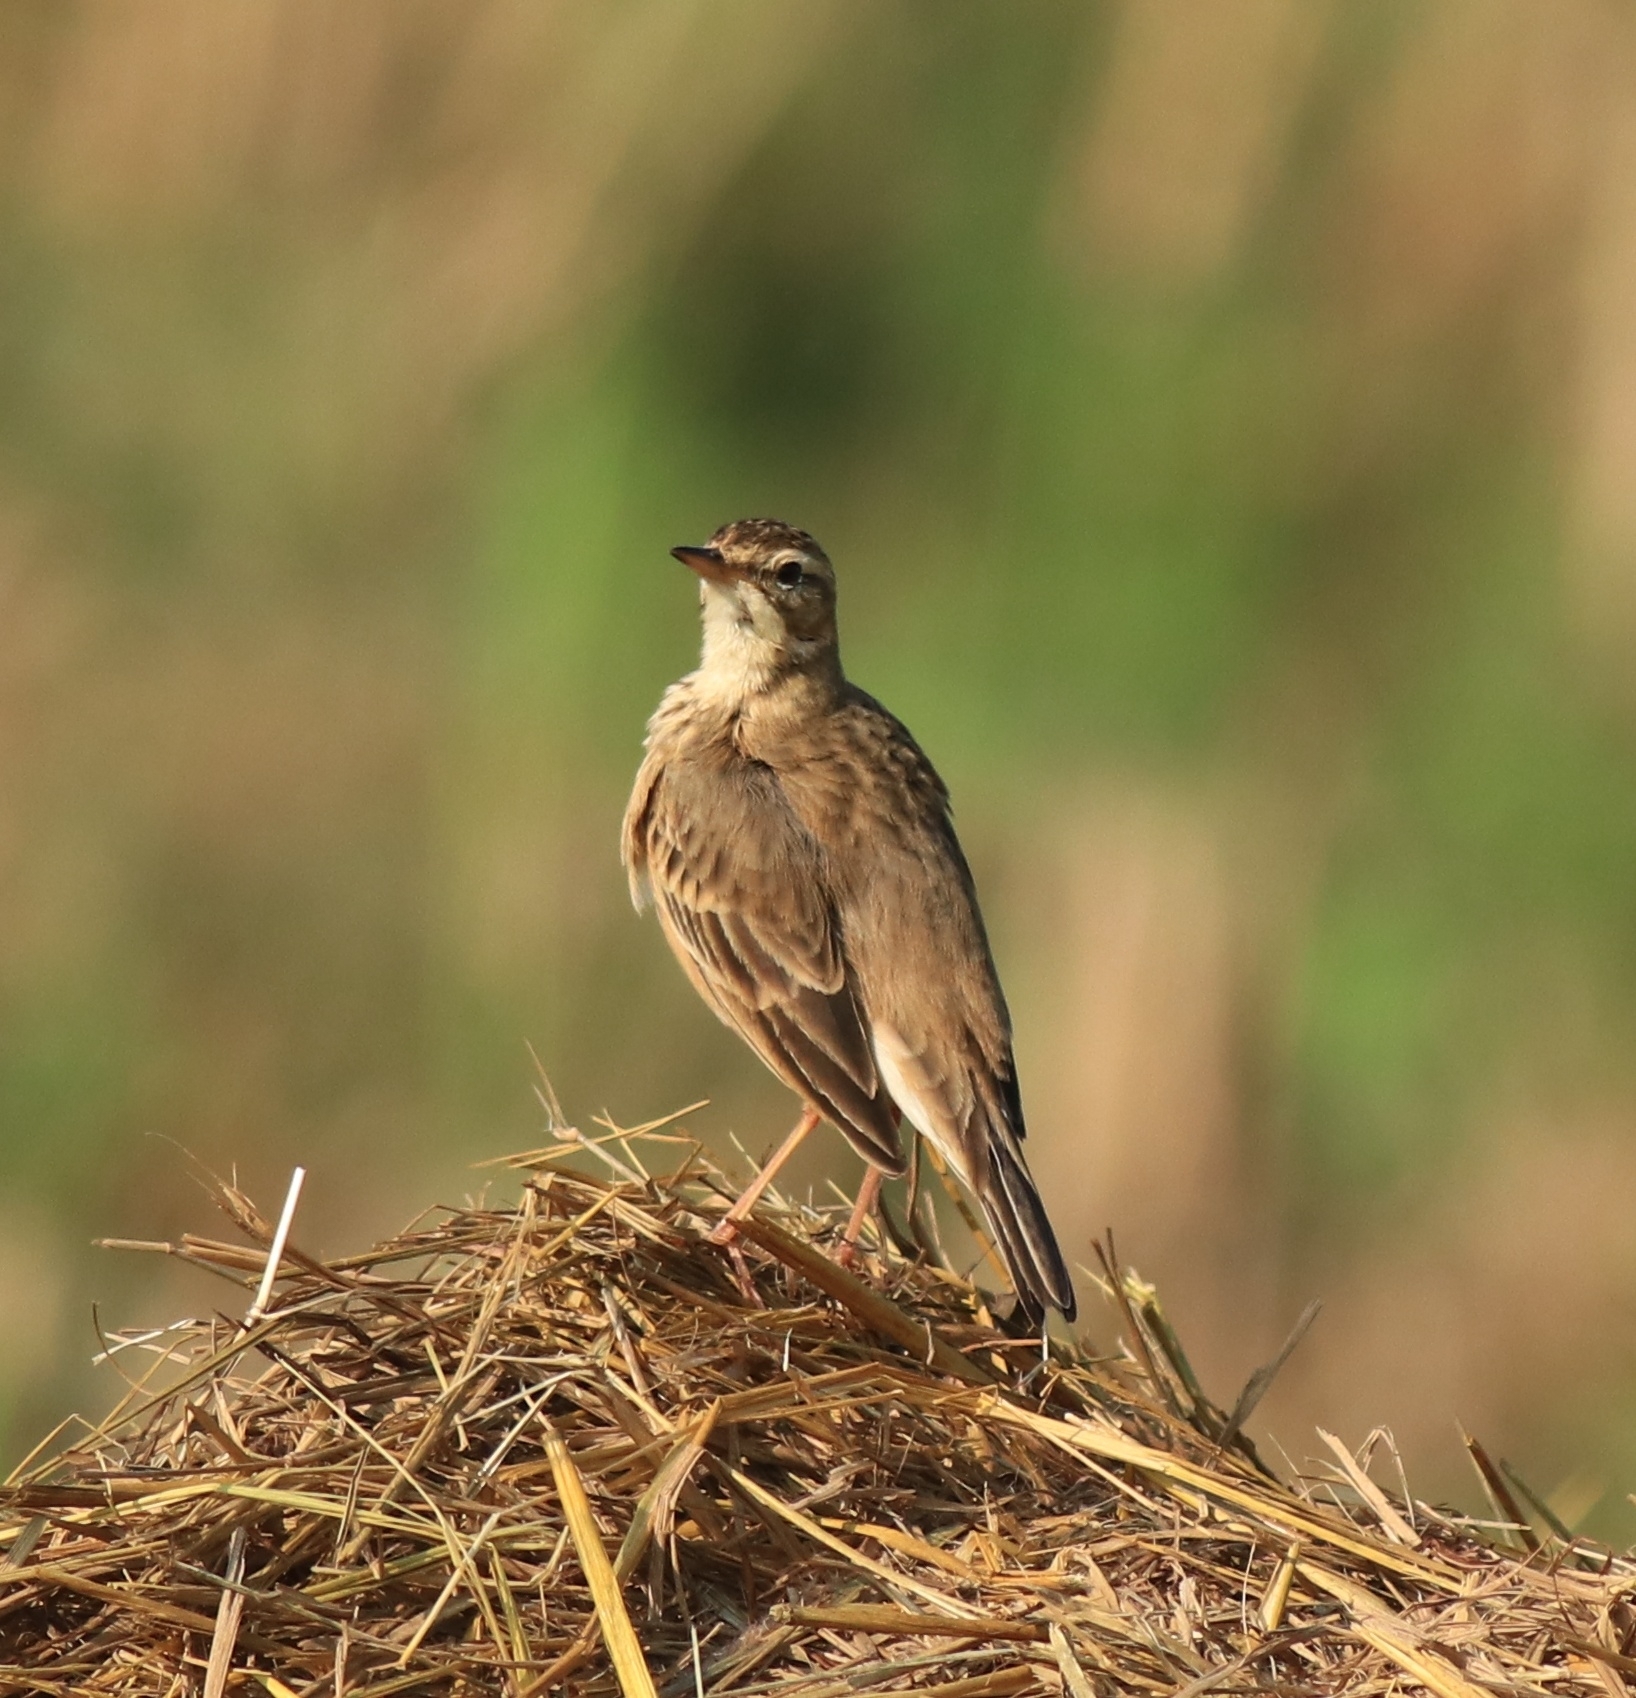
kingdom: Animalia
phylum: Chordata
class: Aves
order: Passeriformes
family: Motacillidae
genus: Anthus
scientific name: Anthus rufulus
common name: Paddyfield pipit
